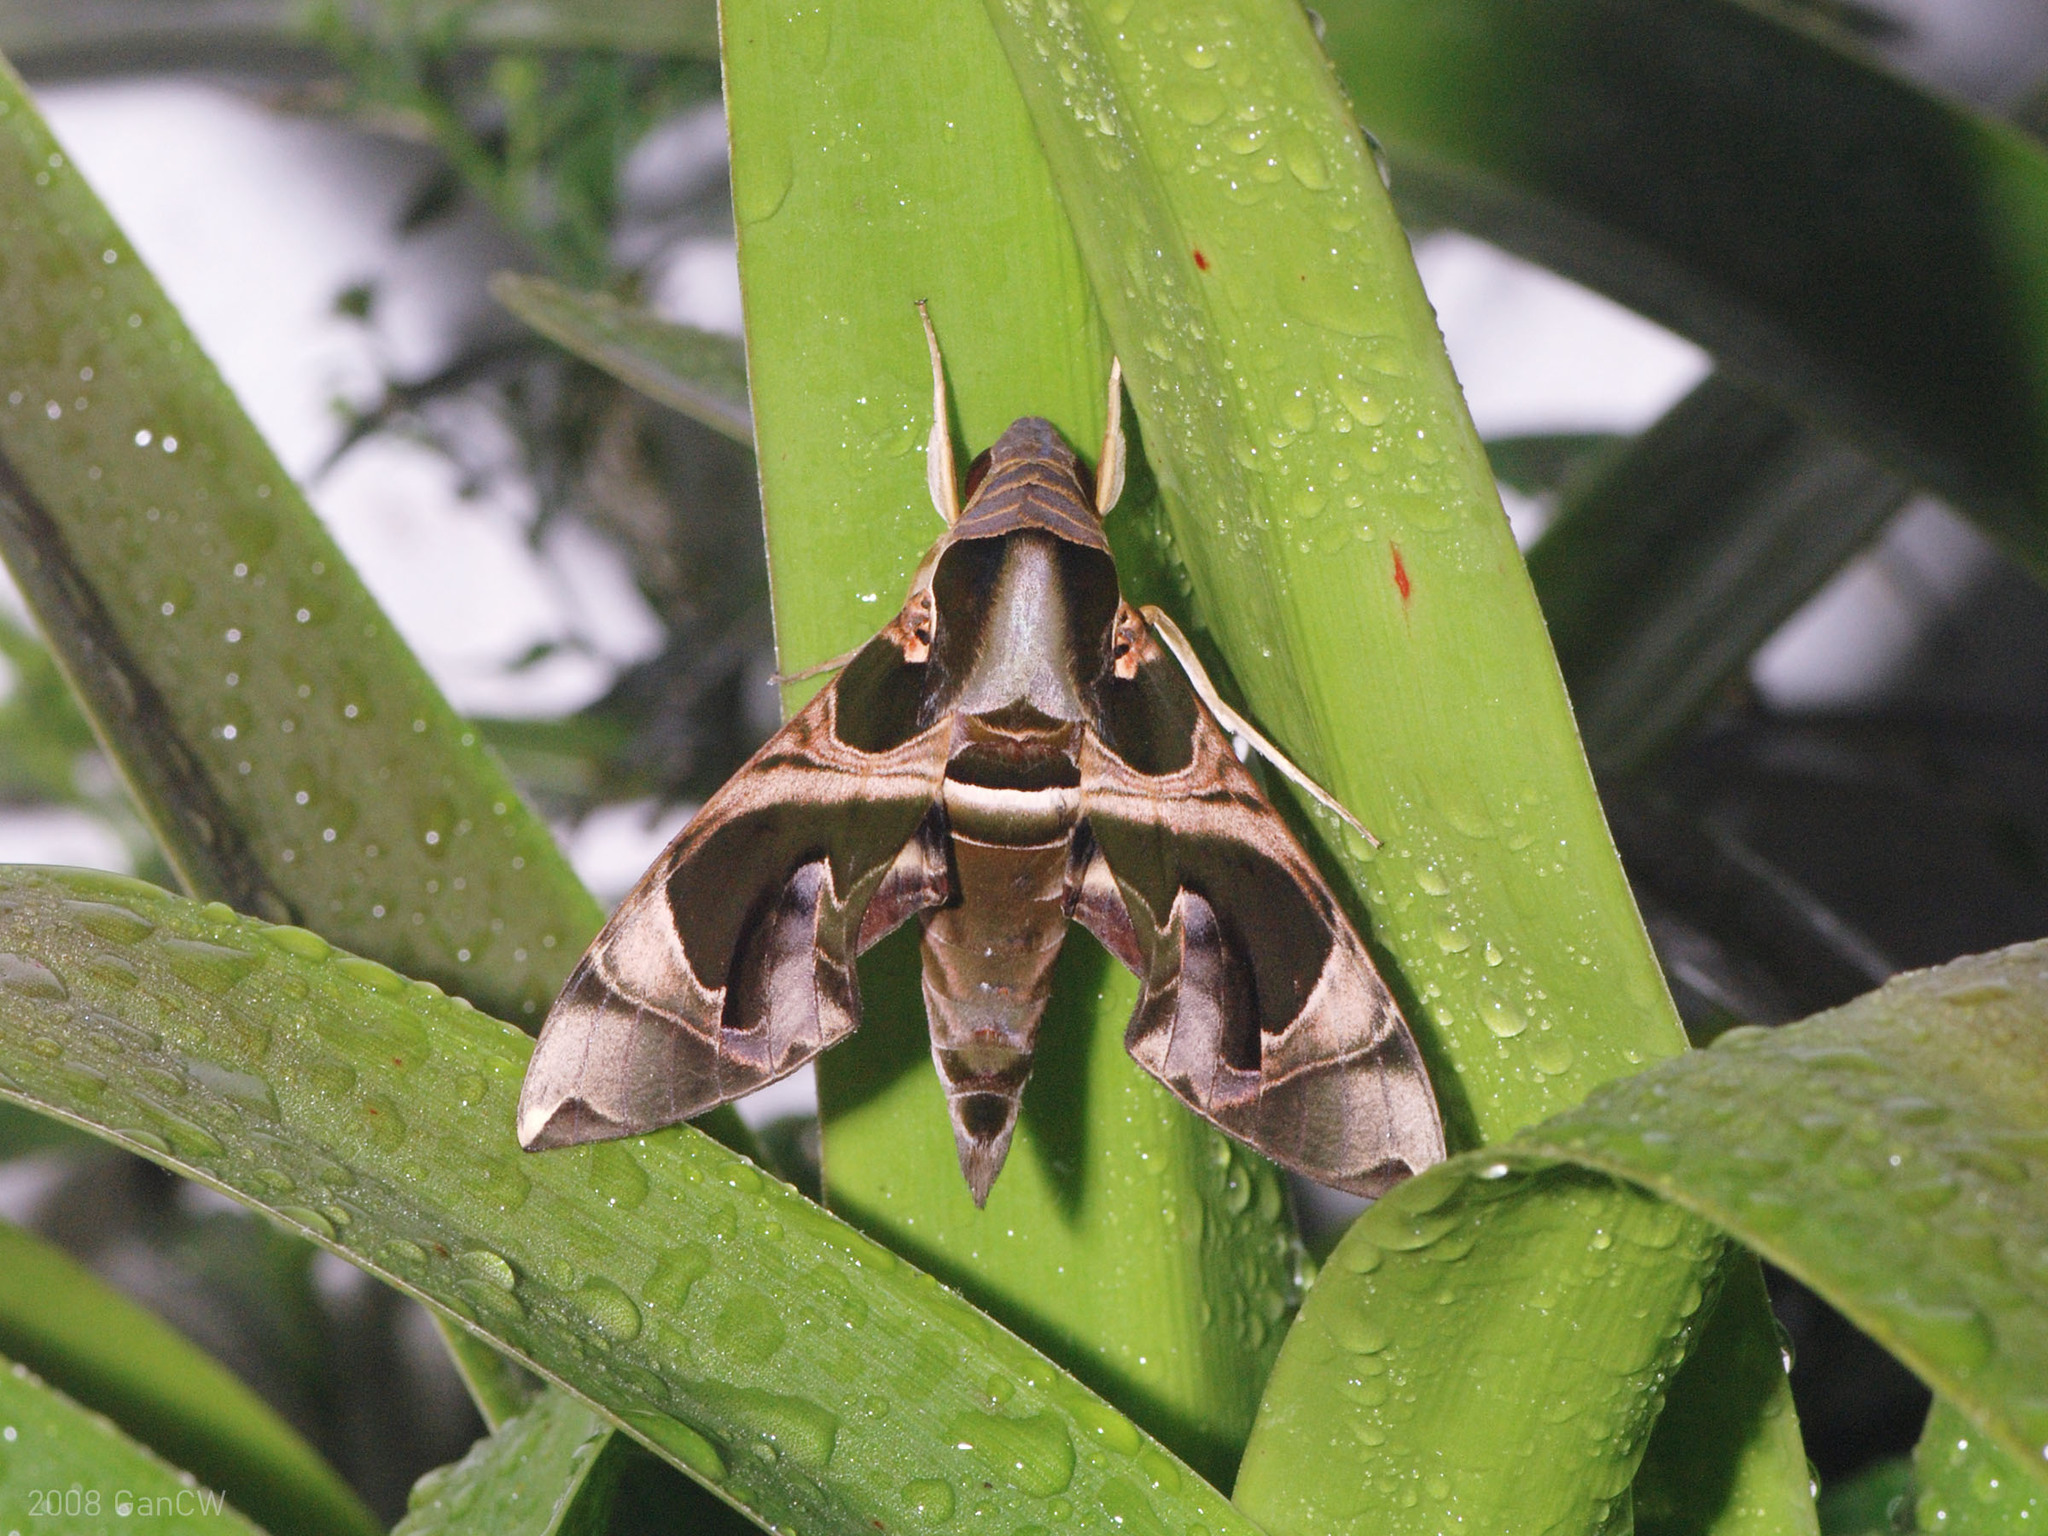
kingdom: Animalia
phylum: Arthropoda
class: Insecta
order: Lepidoptera
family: Sphingidae
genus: Daphnis
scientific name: Daphnis hypothous
